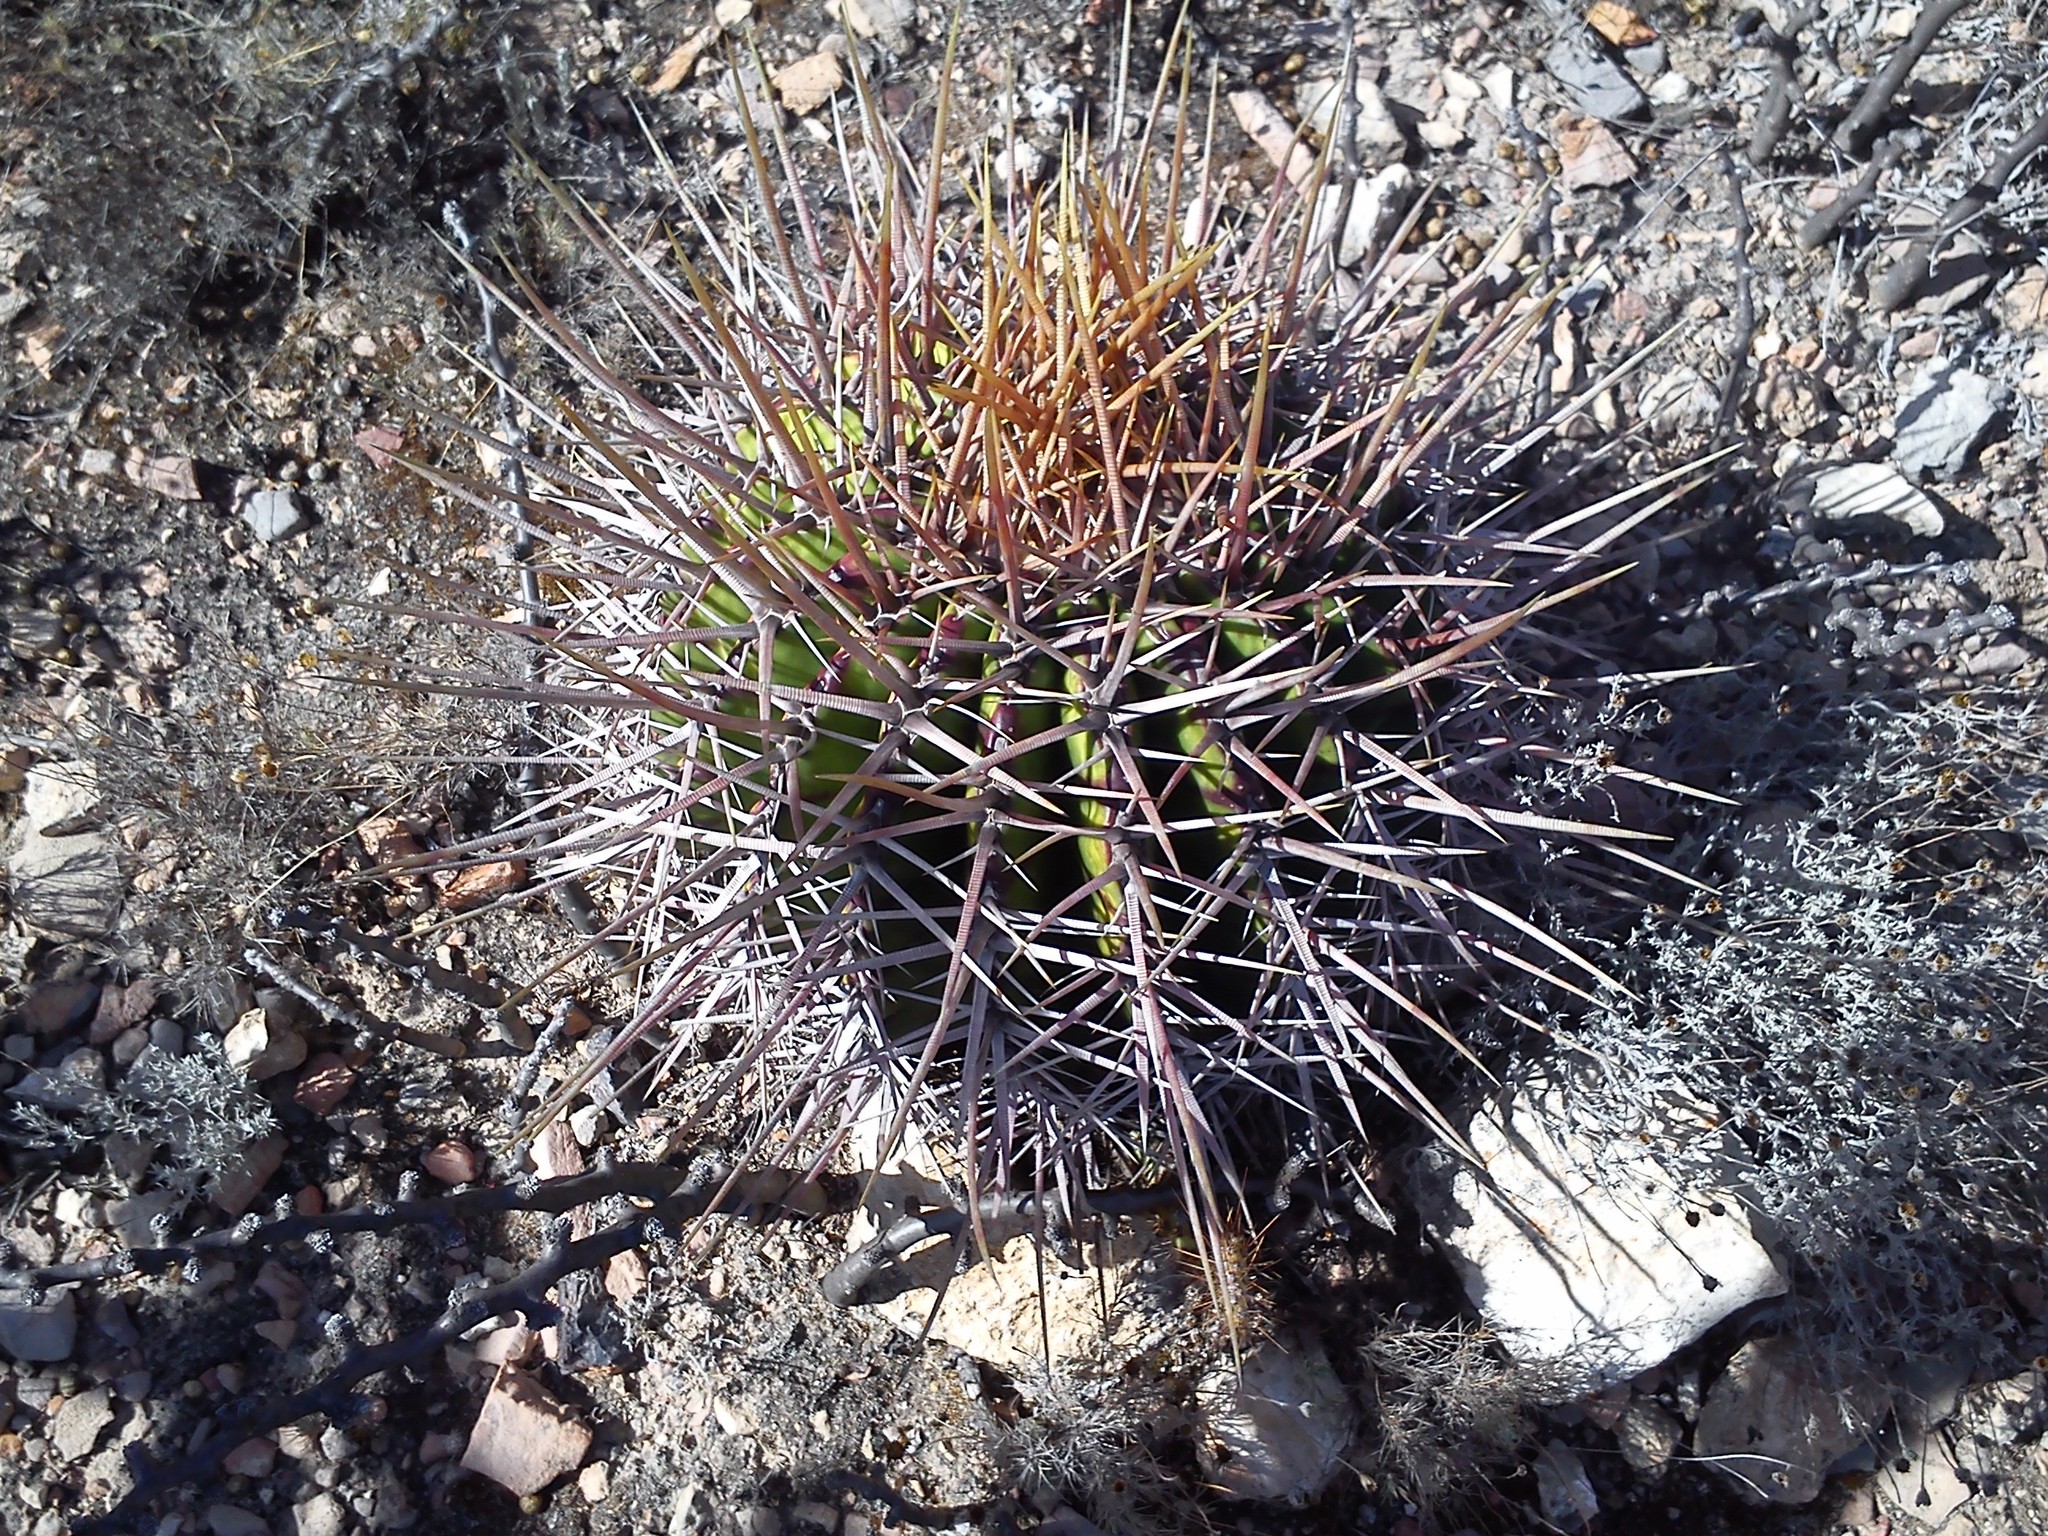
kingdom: Plantae
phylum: Tracheophyta
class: Magnoliopsida
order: Caryophyllales
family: Cactaceae
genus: Echinocactus
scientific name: Echinocactus platyacanthus
